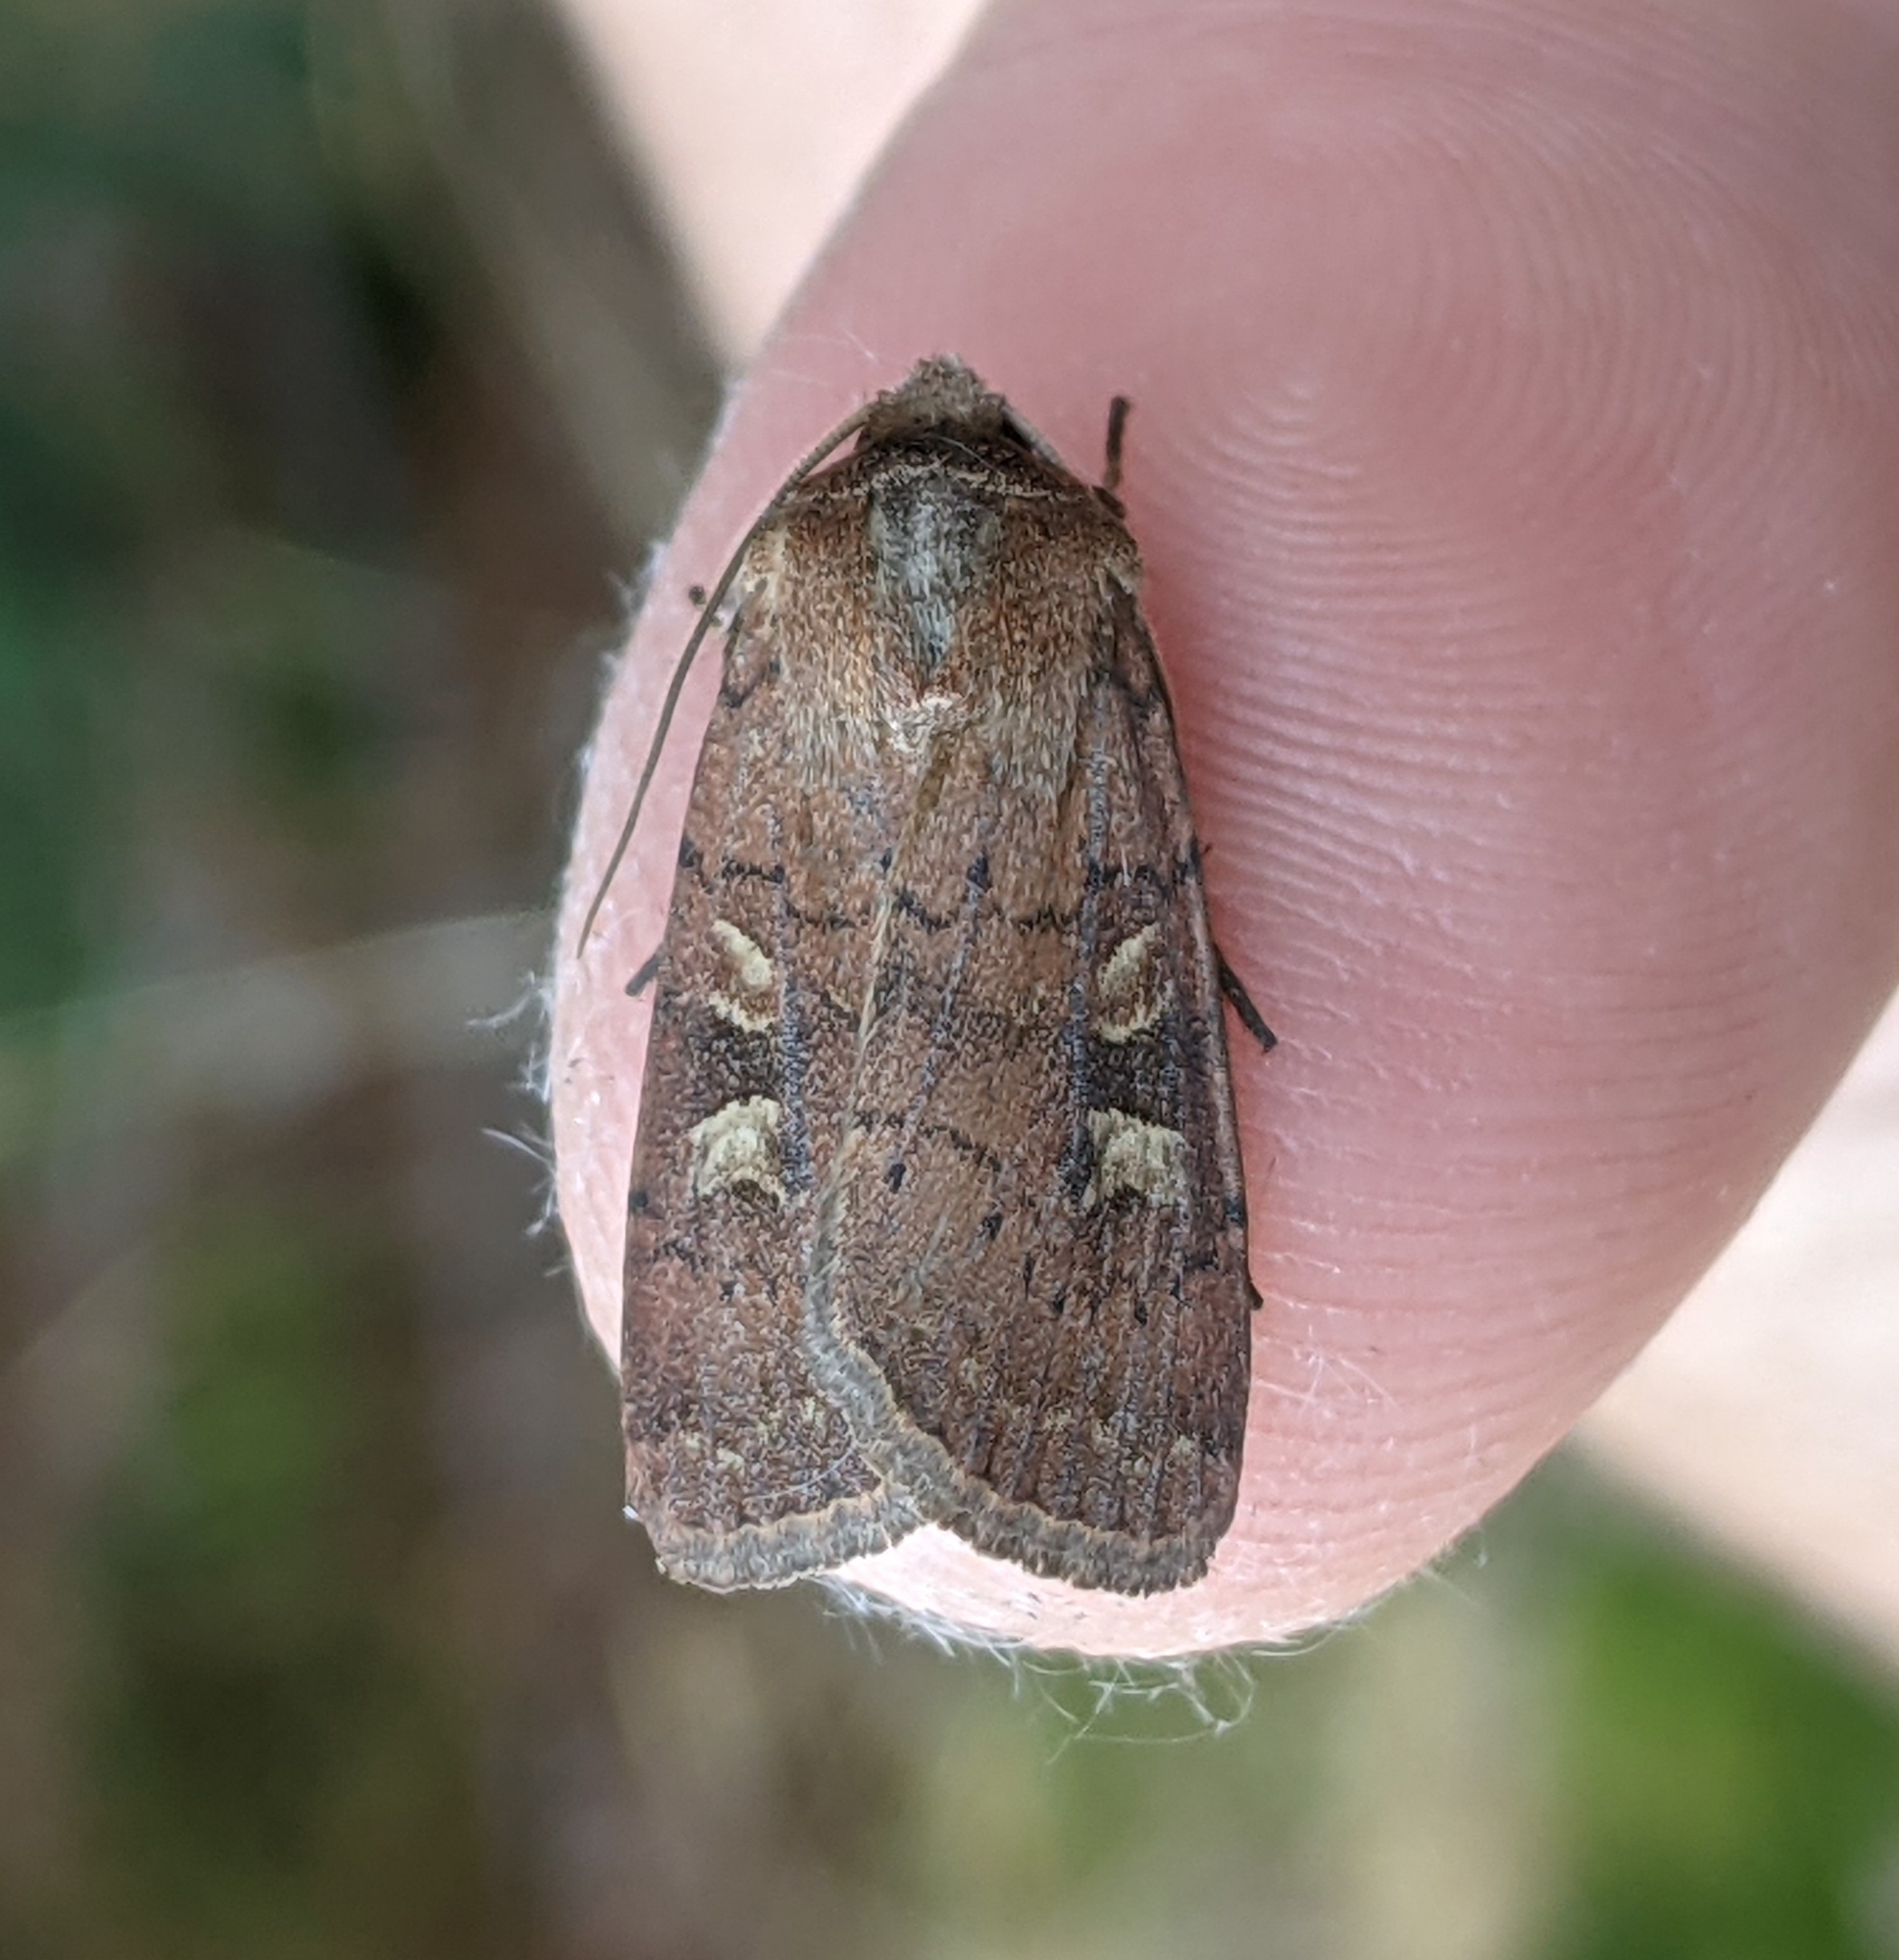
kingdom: Animalia
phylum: Arthropoda
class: Insecta
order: Lepidoptera
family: Noctuidae
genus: Xestia
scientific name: Xestia xanthographa
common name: Square-spot rustic
